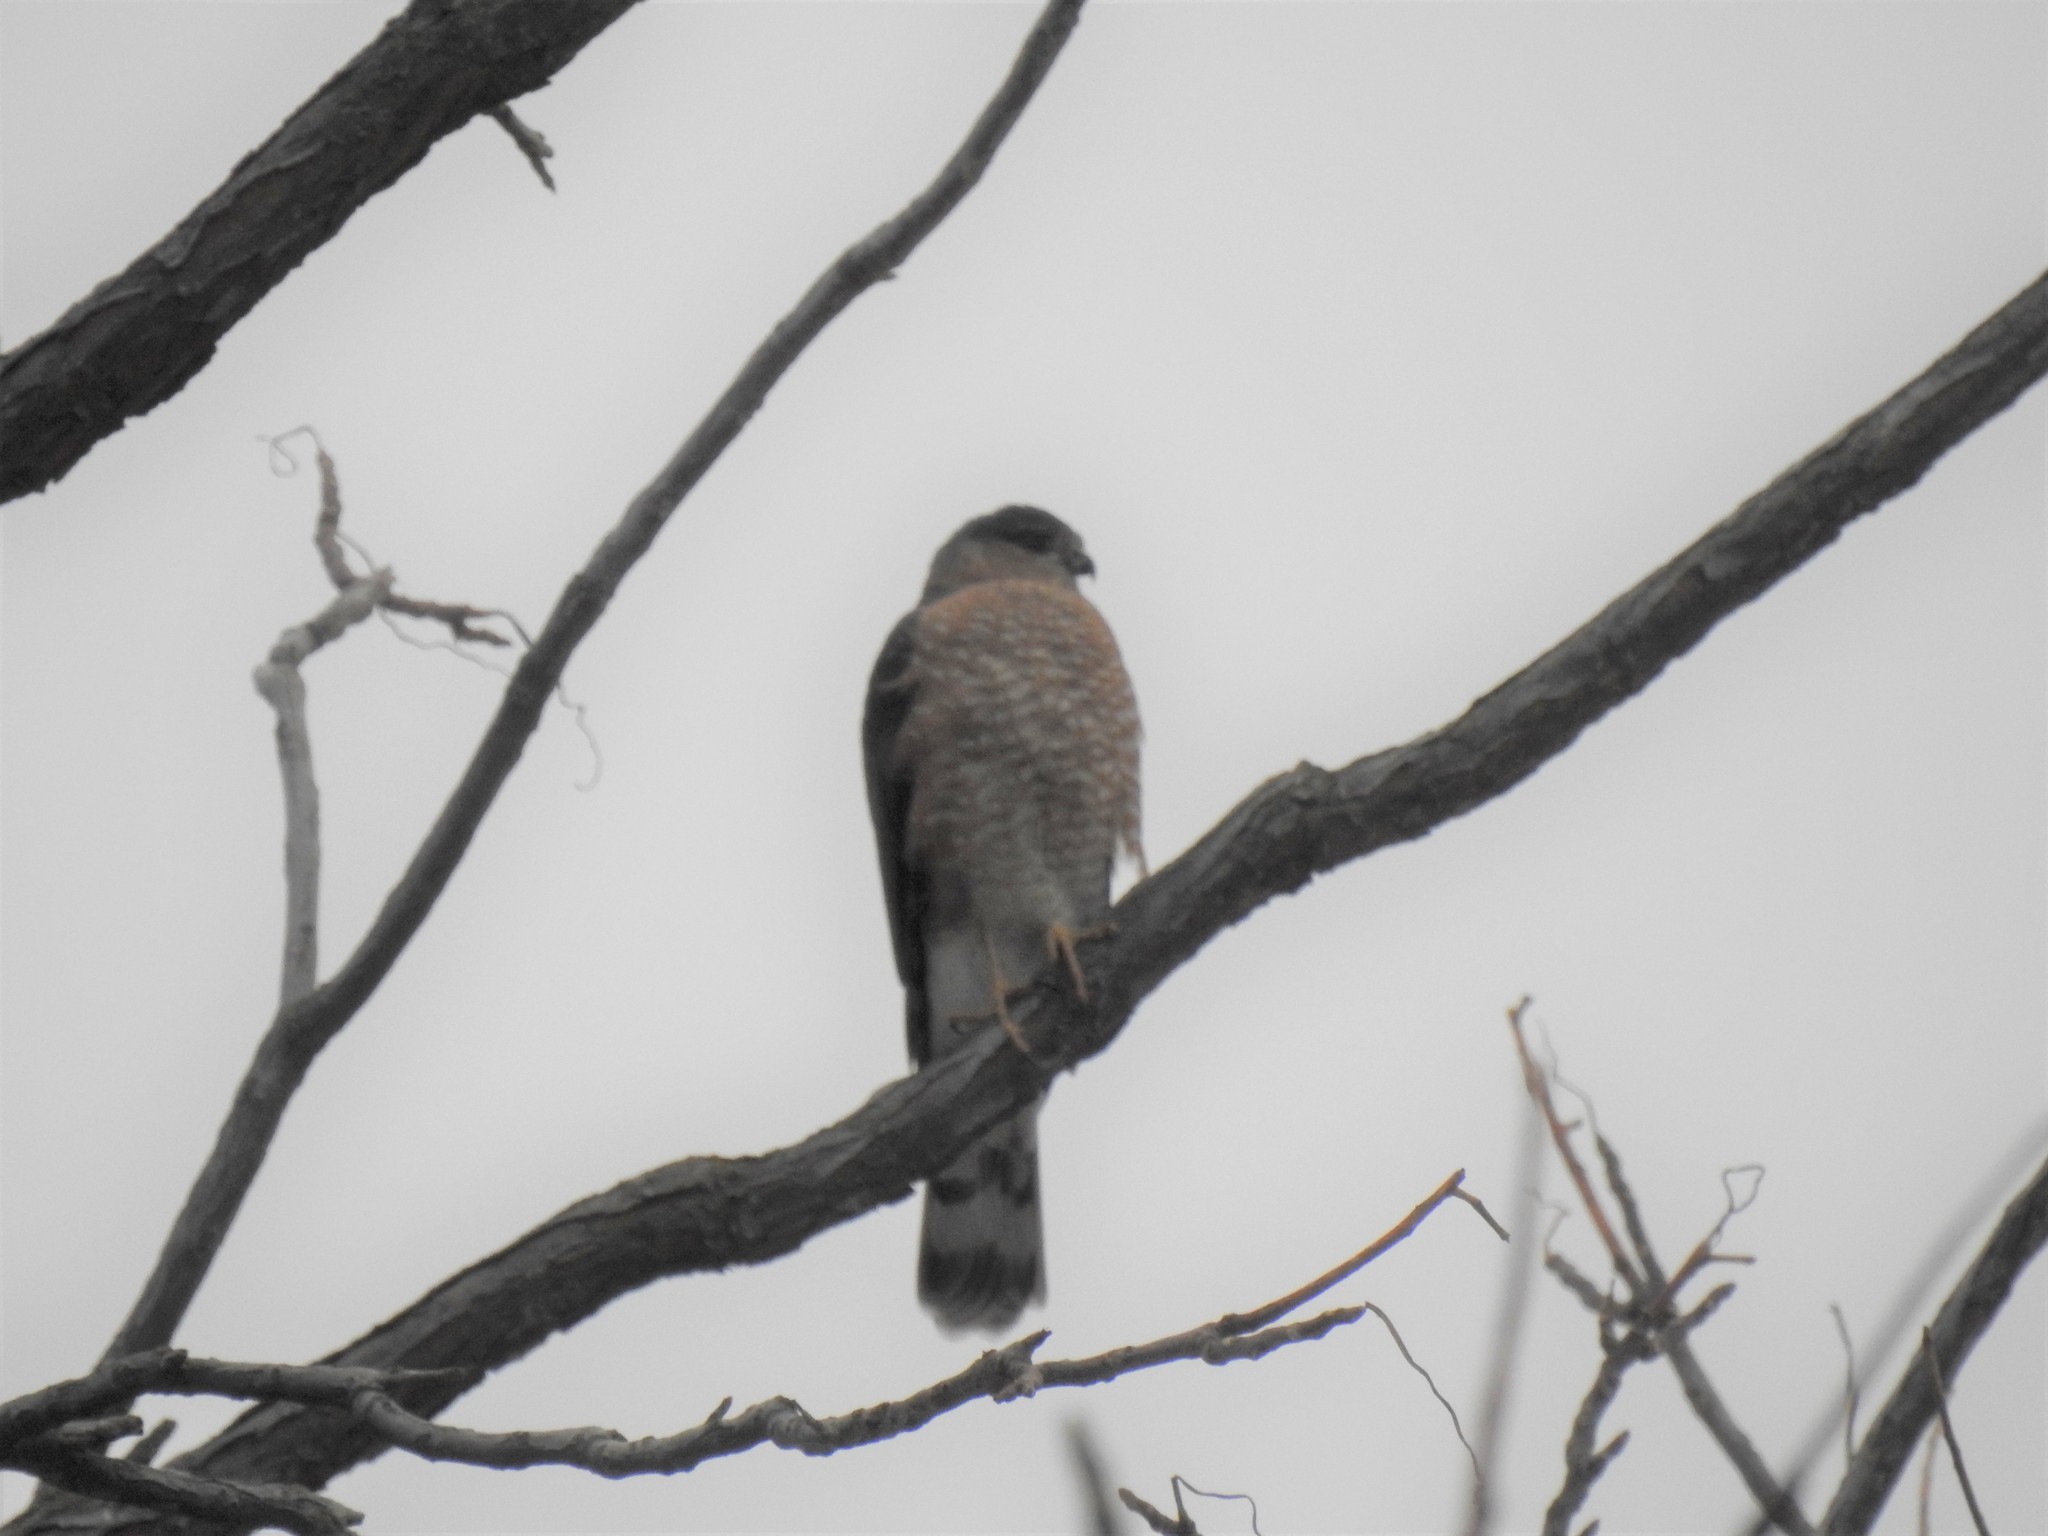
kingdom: Animalia
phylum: Chordata
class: Aves
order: Accipitriformes
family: Accipitridae
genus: Accipiter
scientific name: Accipiter striatus
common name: Sharp-shinned hawk
